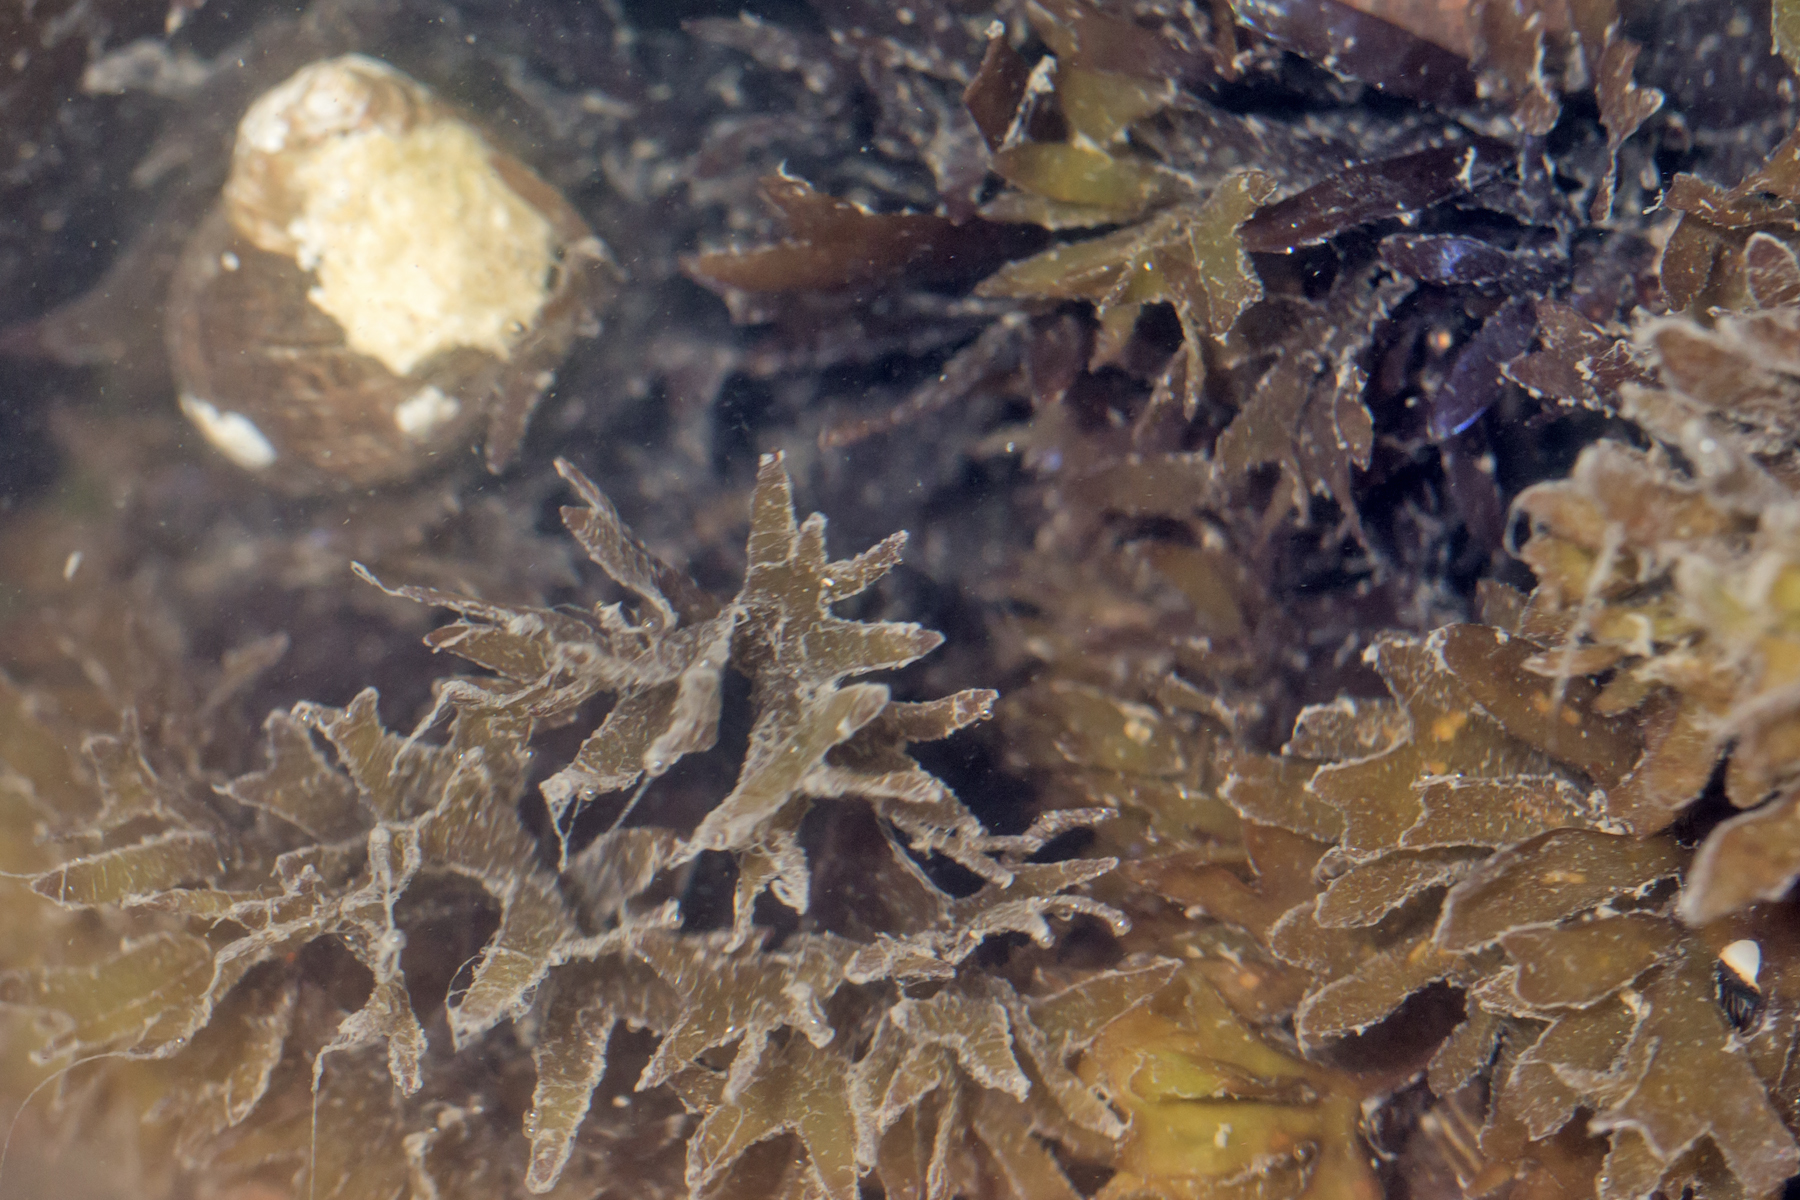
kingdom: Plantae
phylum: Rhodophyta
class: Florideophyceae
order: Gigartinales
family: Gigartinaceae
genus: Chondrus
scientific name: Chondrus crispus
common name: Carrageen
